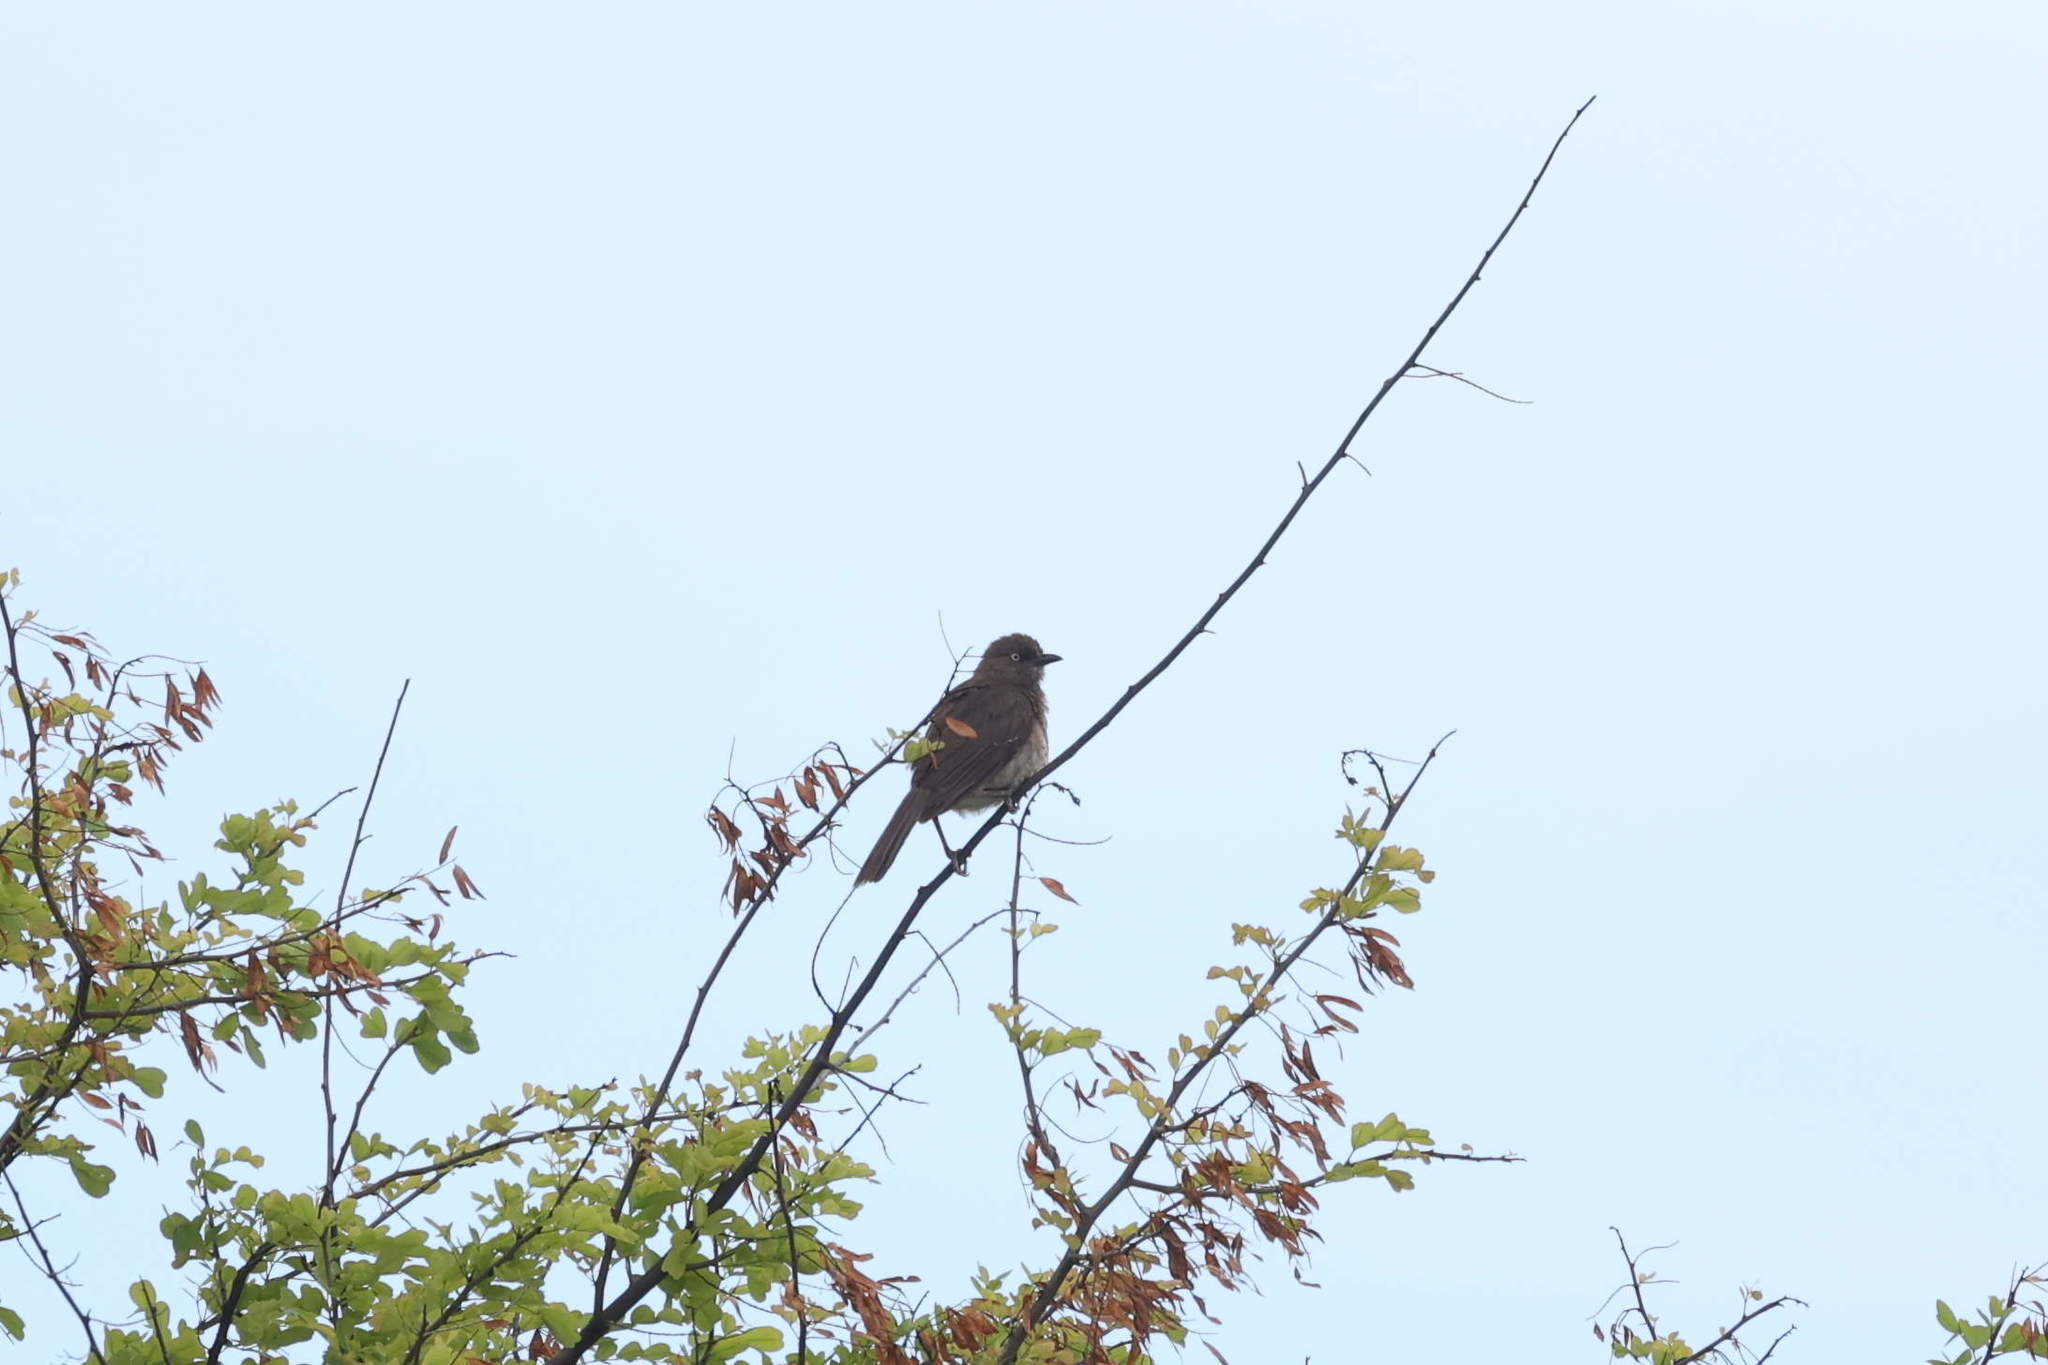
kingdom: Animalia
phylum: Chordata
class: Aves
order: Passeriformes
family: Mimidae
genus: Allenia
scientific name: Allenia fusca
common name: Scaly-breasted thrasher
